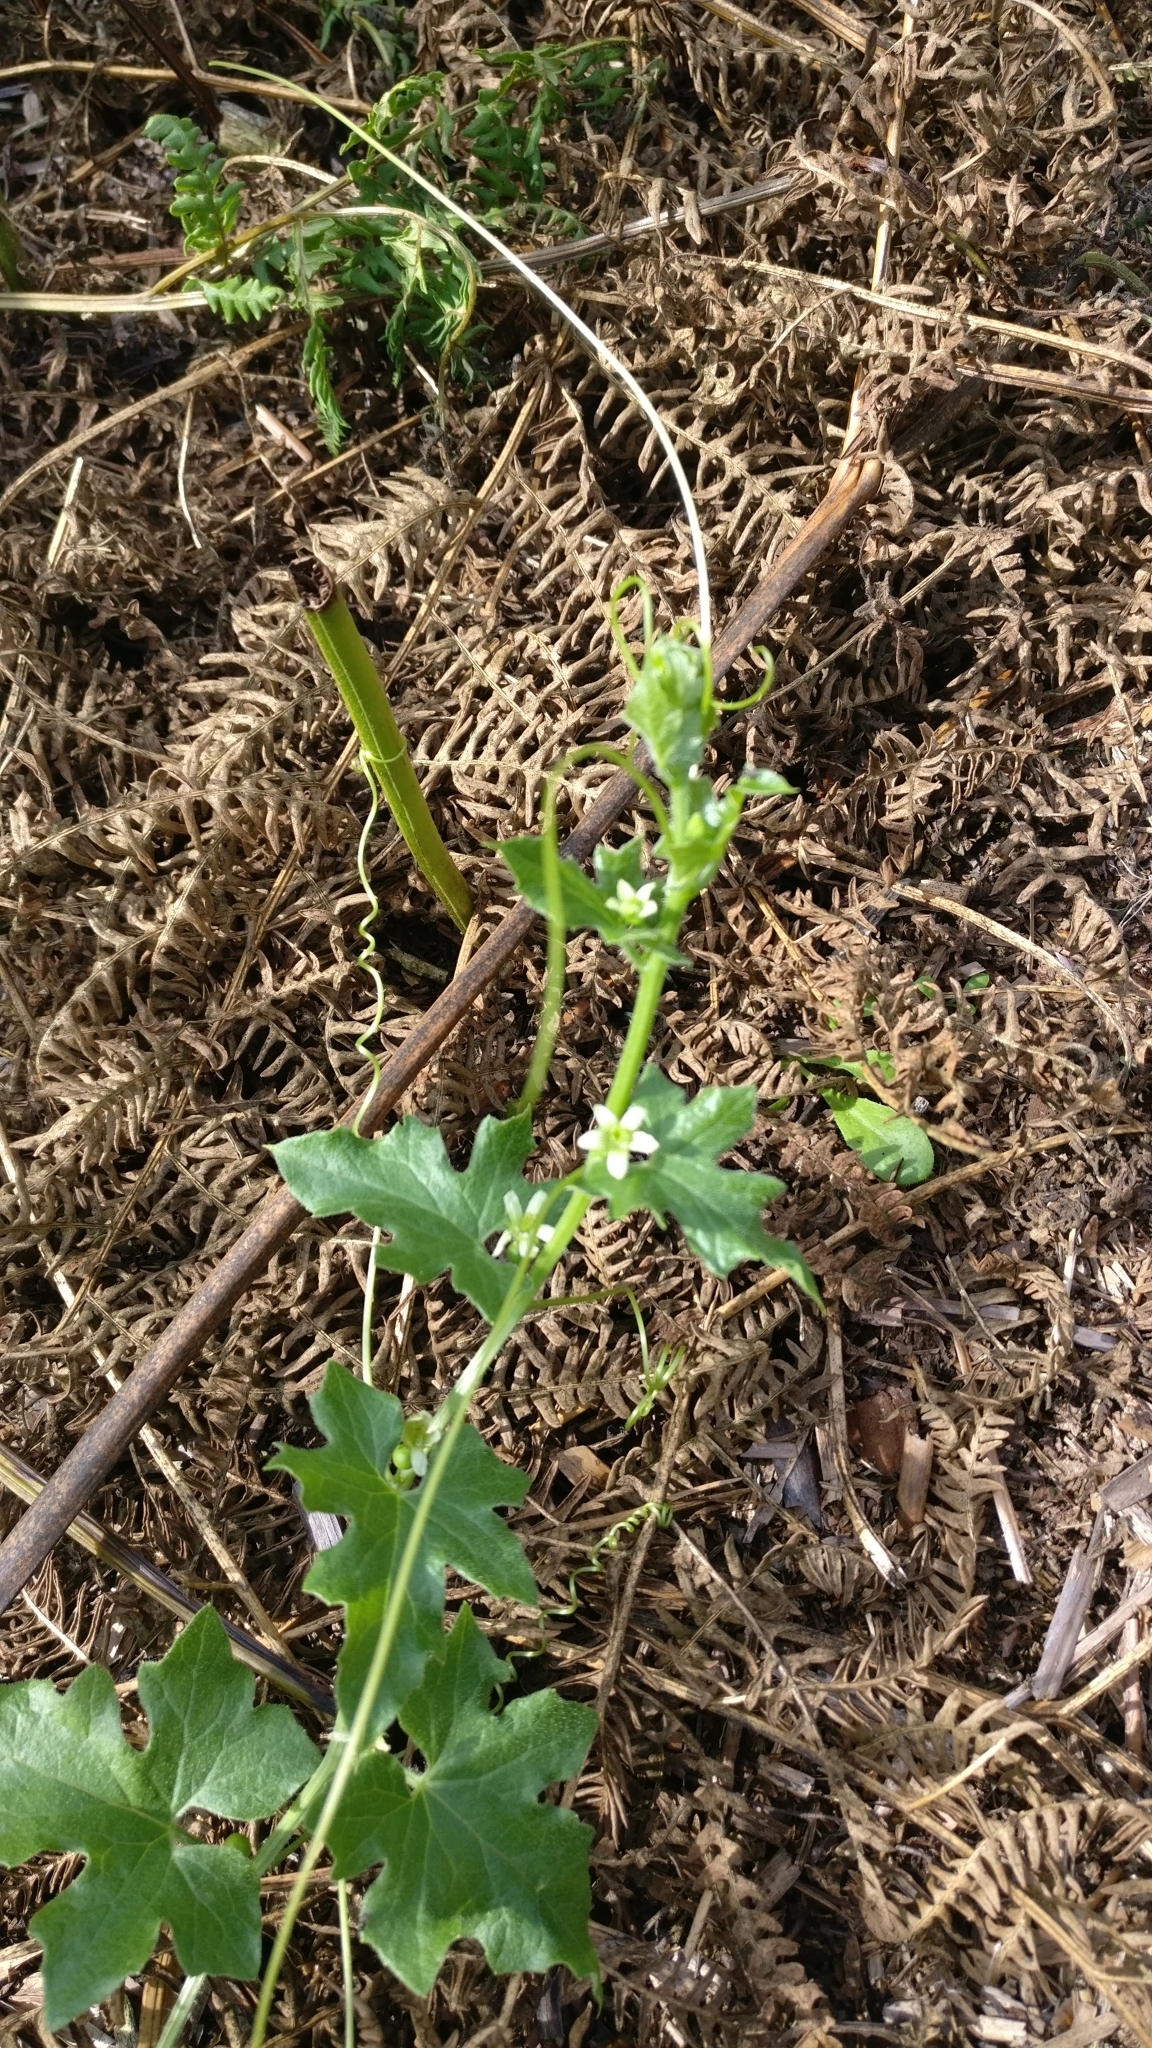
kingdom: Plantae
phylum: Tracheophyta
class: Magnoliopsida
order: Cucurbitales
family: Cucurbitaceae
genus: Bryonia
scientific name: Bryonia cretica
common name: Cretan bryony
